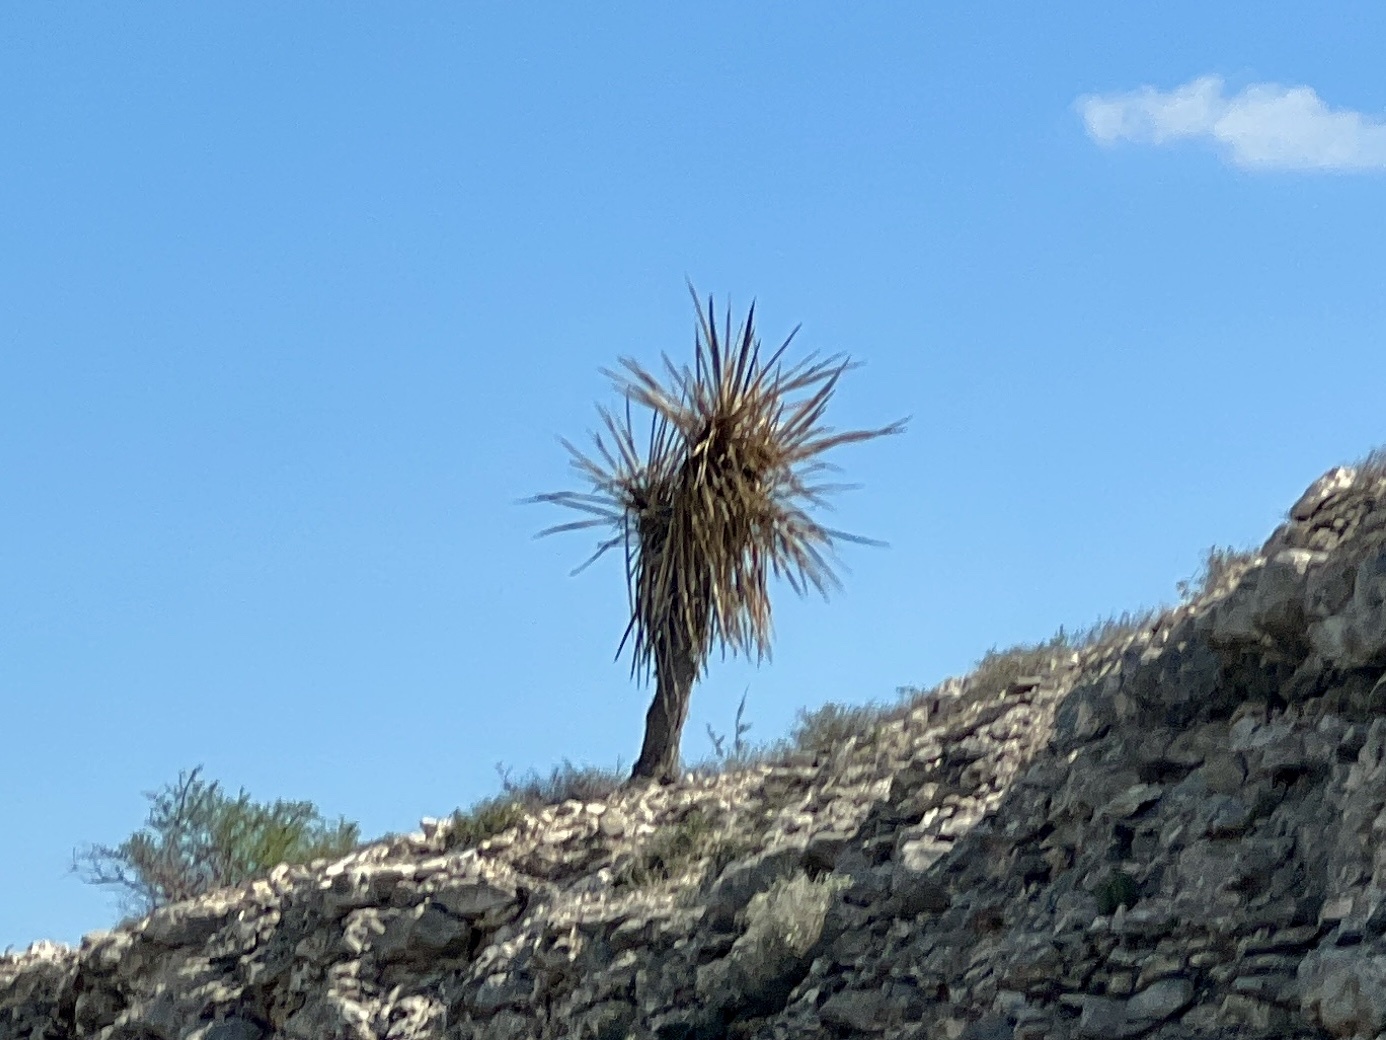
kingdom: Plantae
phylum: Tracheophyta
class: Liliopsida
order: Asparagales
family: Asparagaceae
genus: Yucca
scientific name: Yucca treculiana
